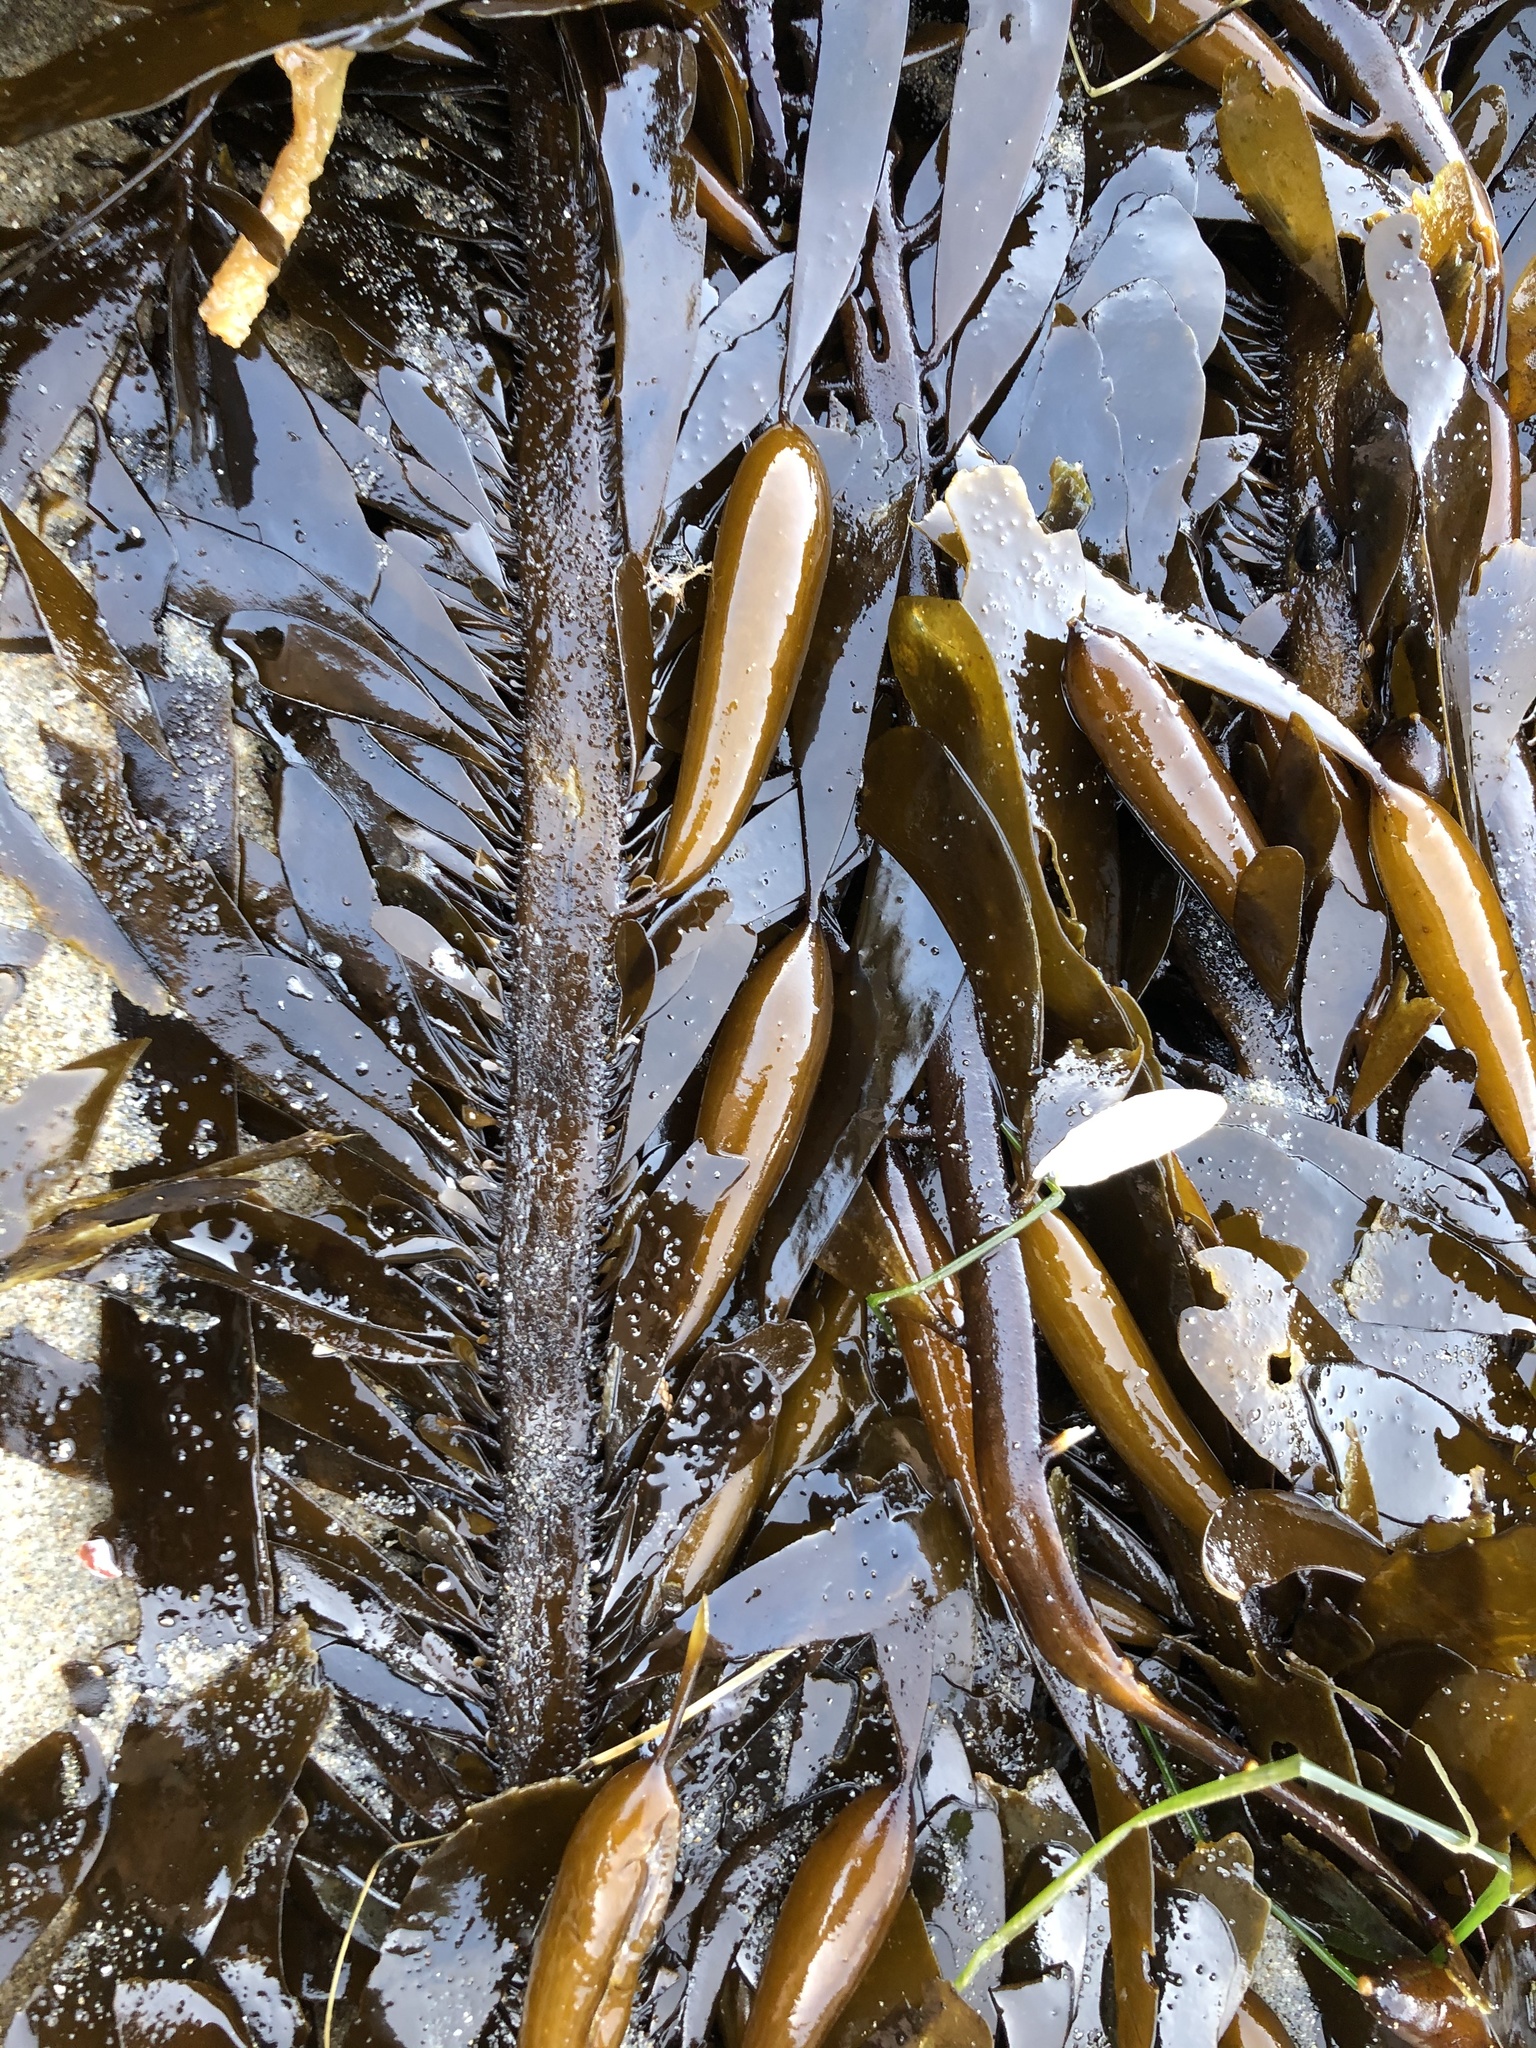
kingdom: Chromista
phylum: Ochrophyta
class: Phaeophyceae
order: Laminariales
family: Lessoniaceae
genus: Egregia
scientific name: Egregia menziesii
